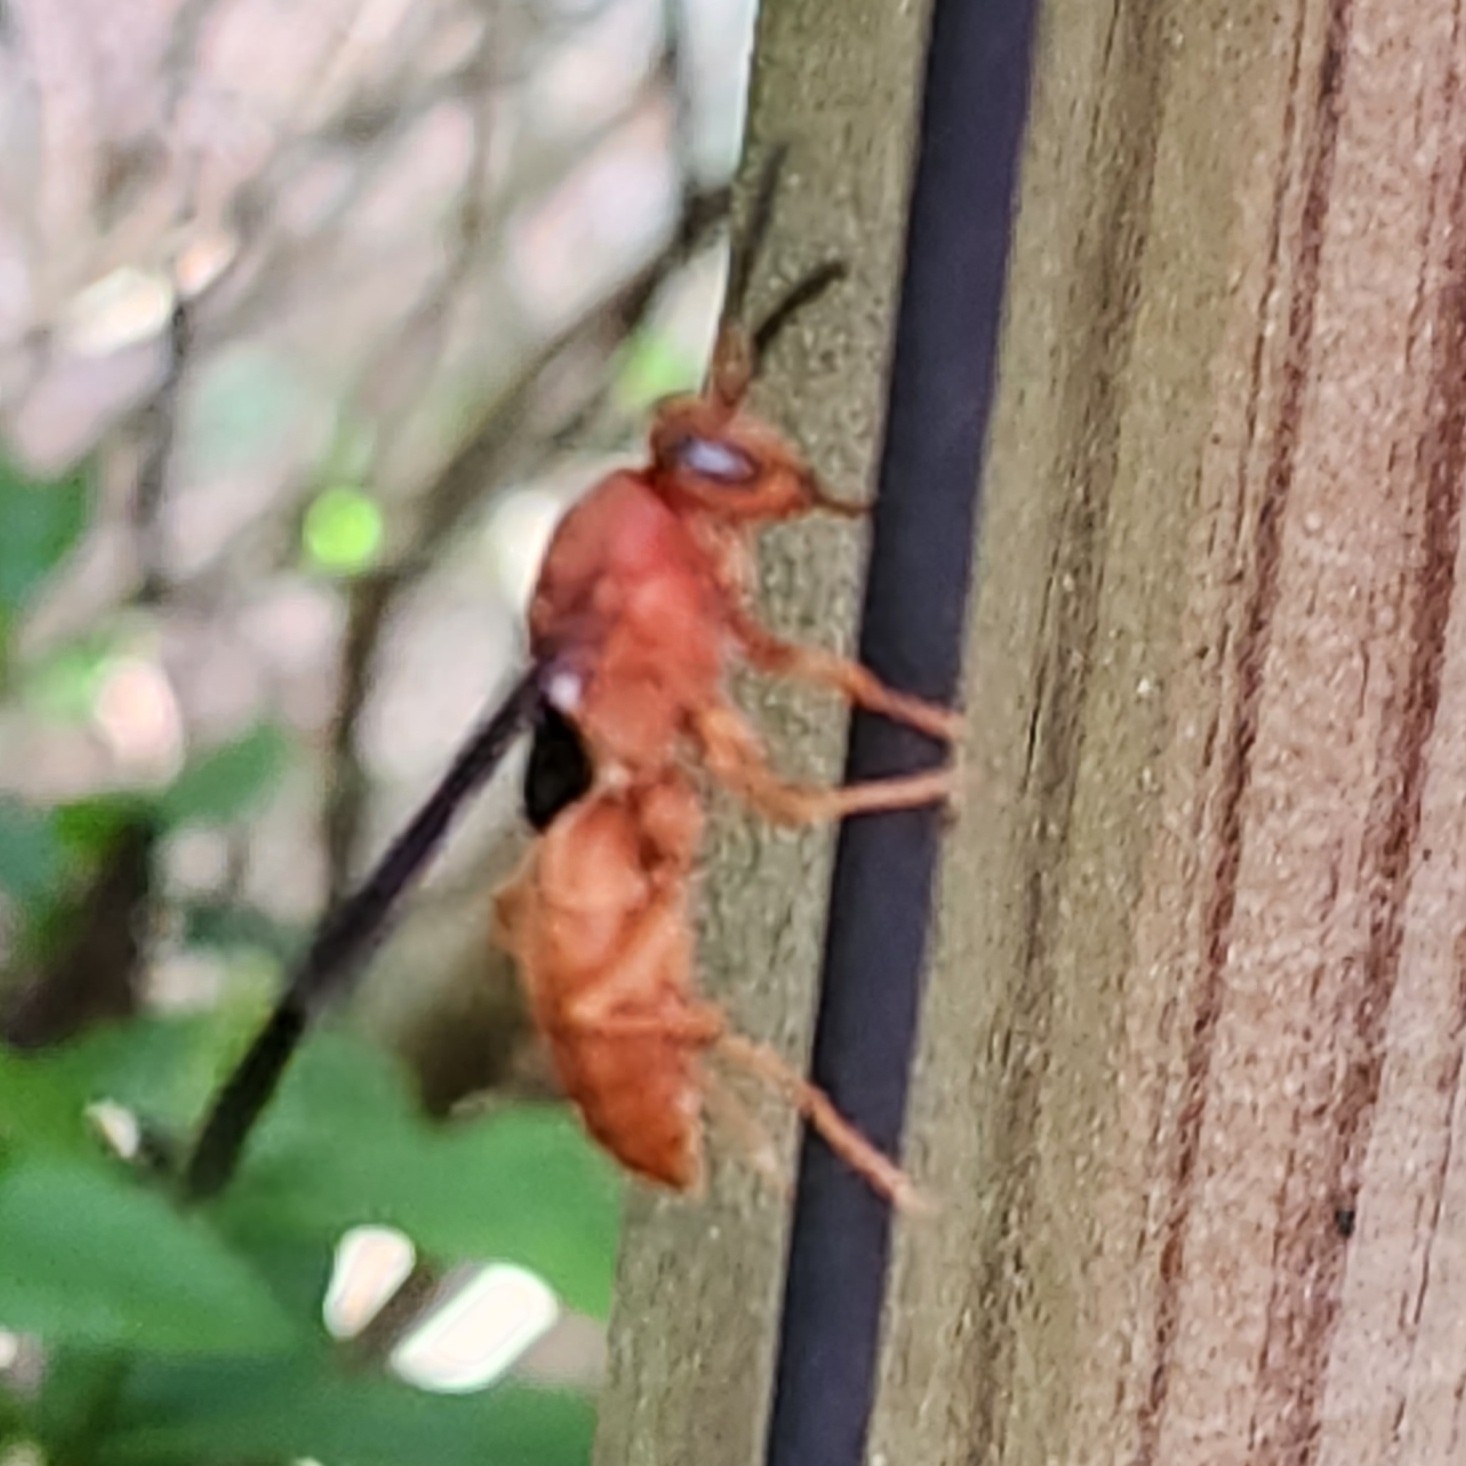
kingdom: Animalia
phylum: Arthropoda
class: Insecta
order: Hymenoptera
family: Vespidae
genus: Fuscopolistes
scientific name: Fuscopolistes
